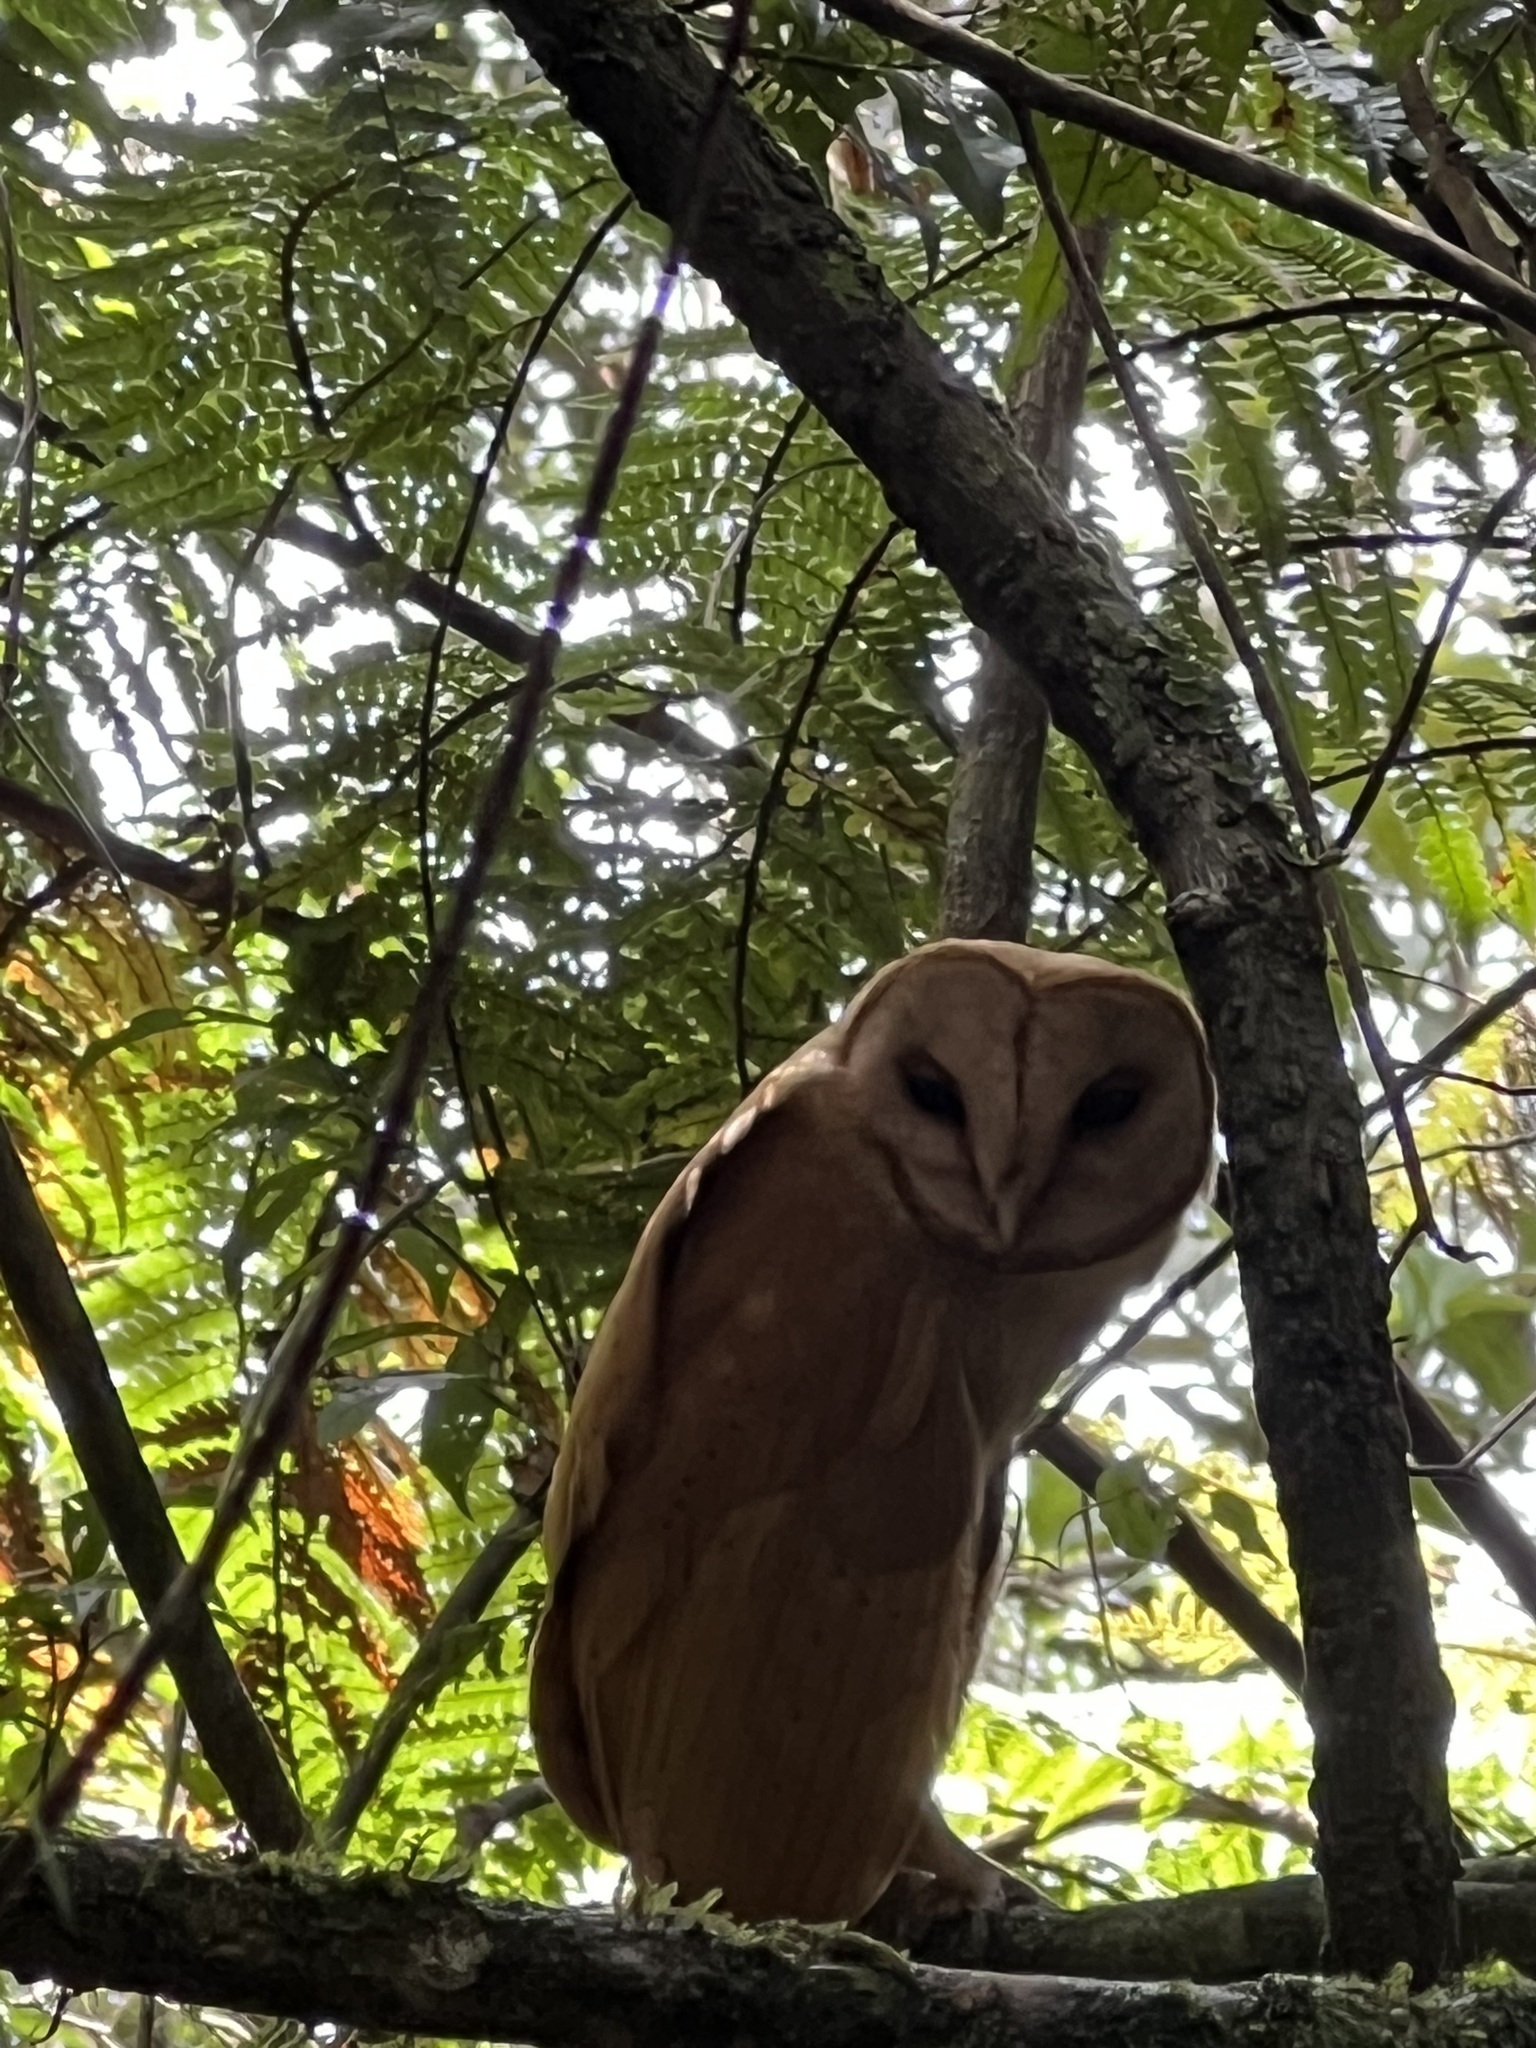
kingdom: Animalia
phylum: Chordata
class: Aves
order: Strigiformes
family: Tytonidae
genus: Tyto
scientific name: Tyto soumagnei
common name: Red owl
